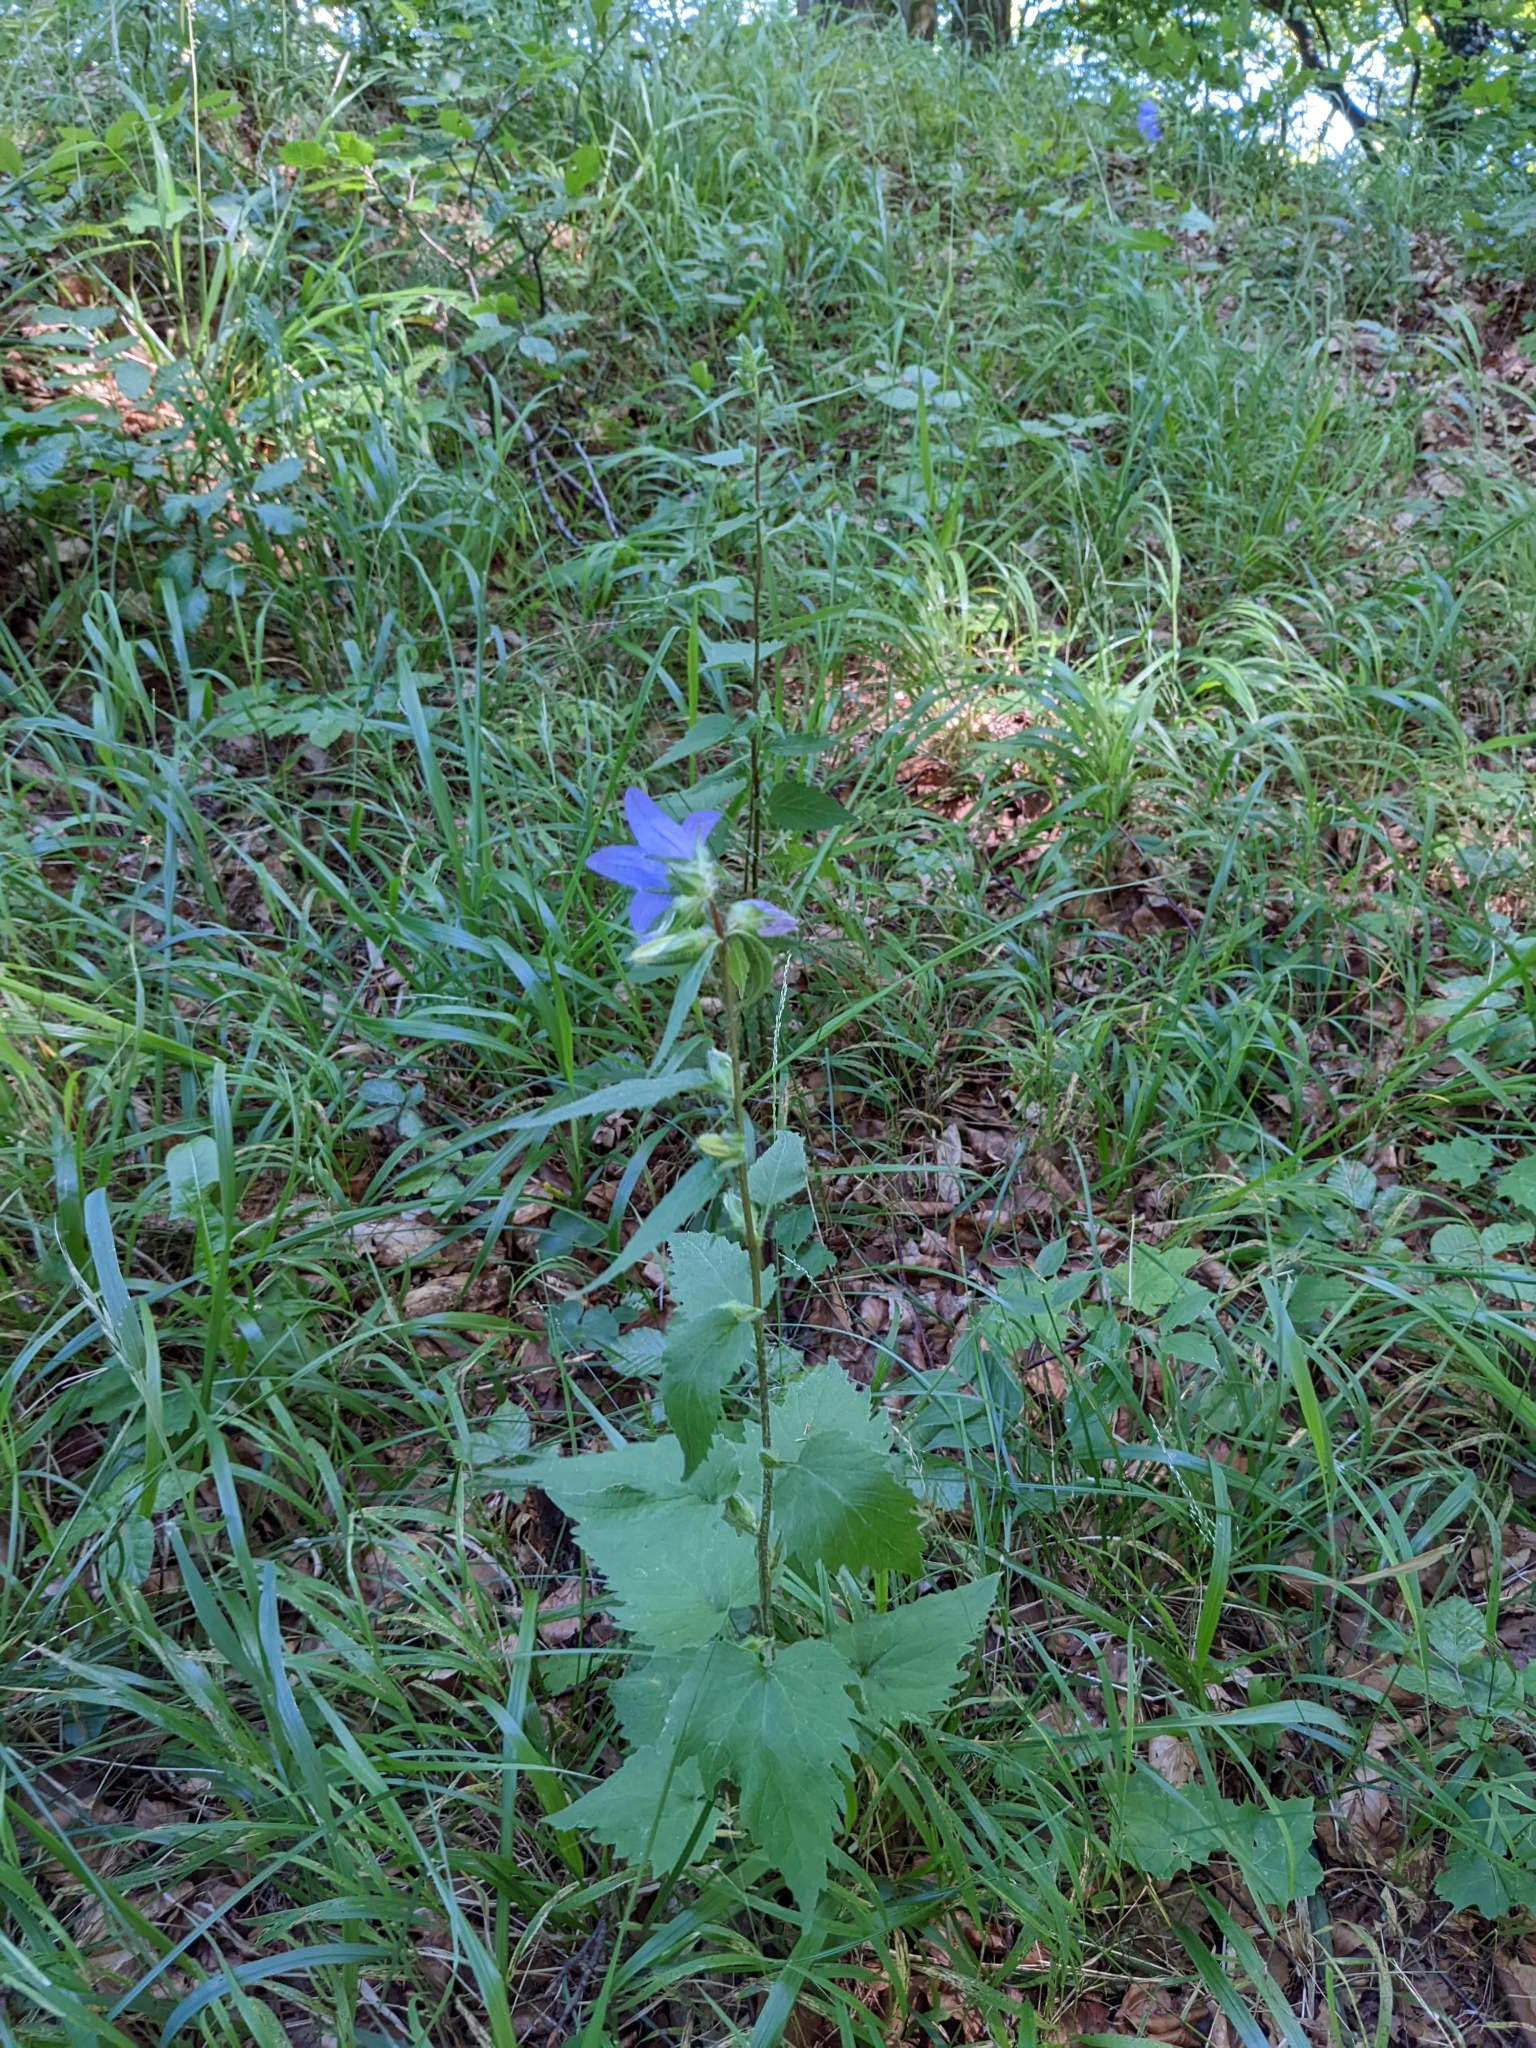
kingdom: Plantae
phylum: Tracheophyta
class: Magnoliopsida
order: Asterales
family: Campanulaceae
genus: Campanula
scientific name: Campanula trachelium
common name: Nettle-leaved bellflower
